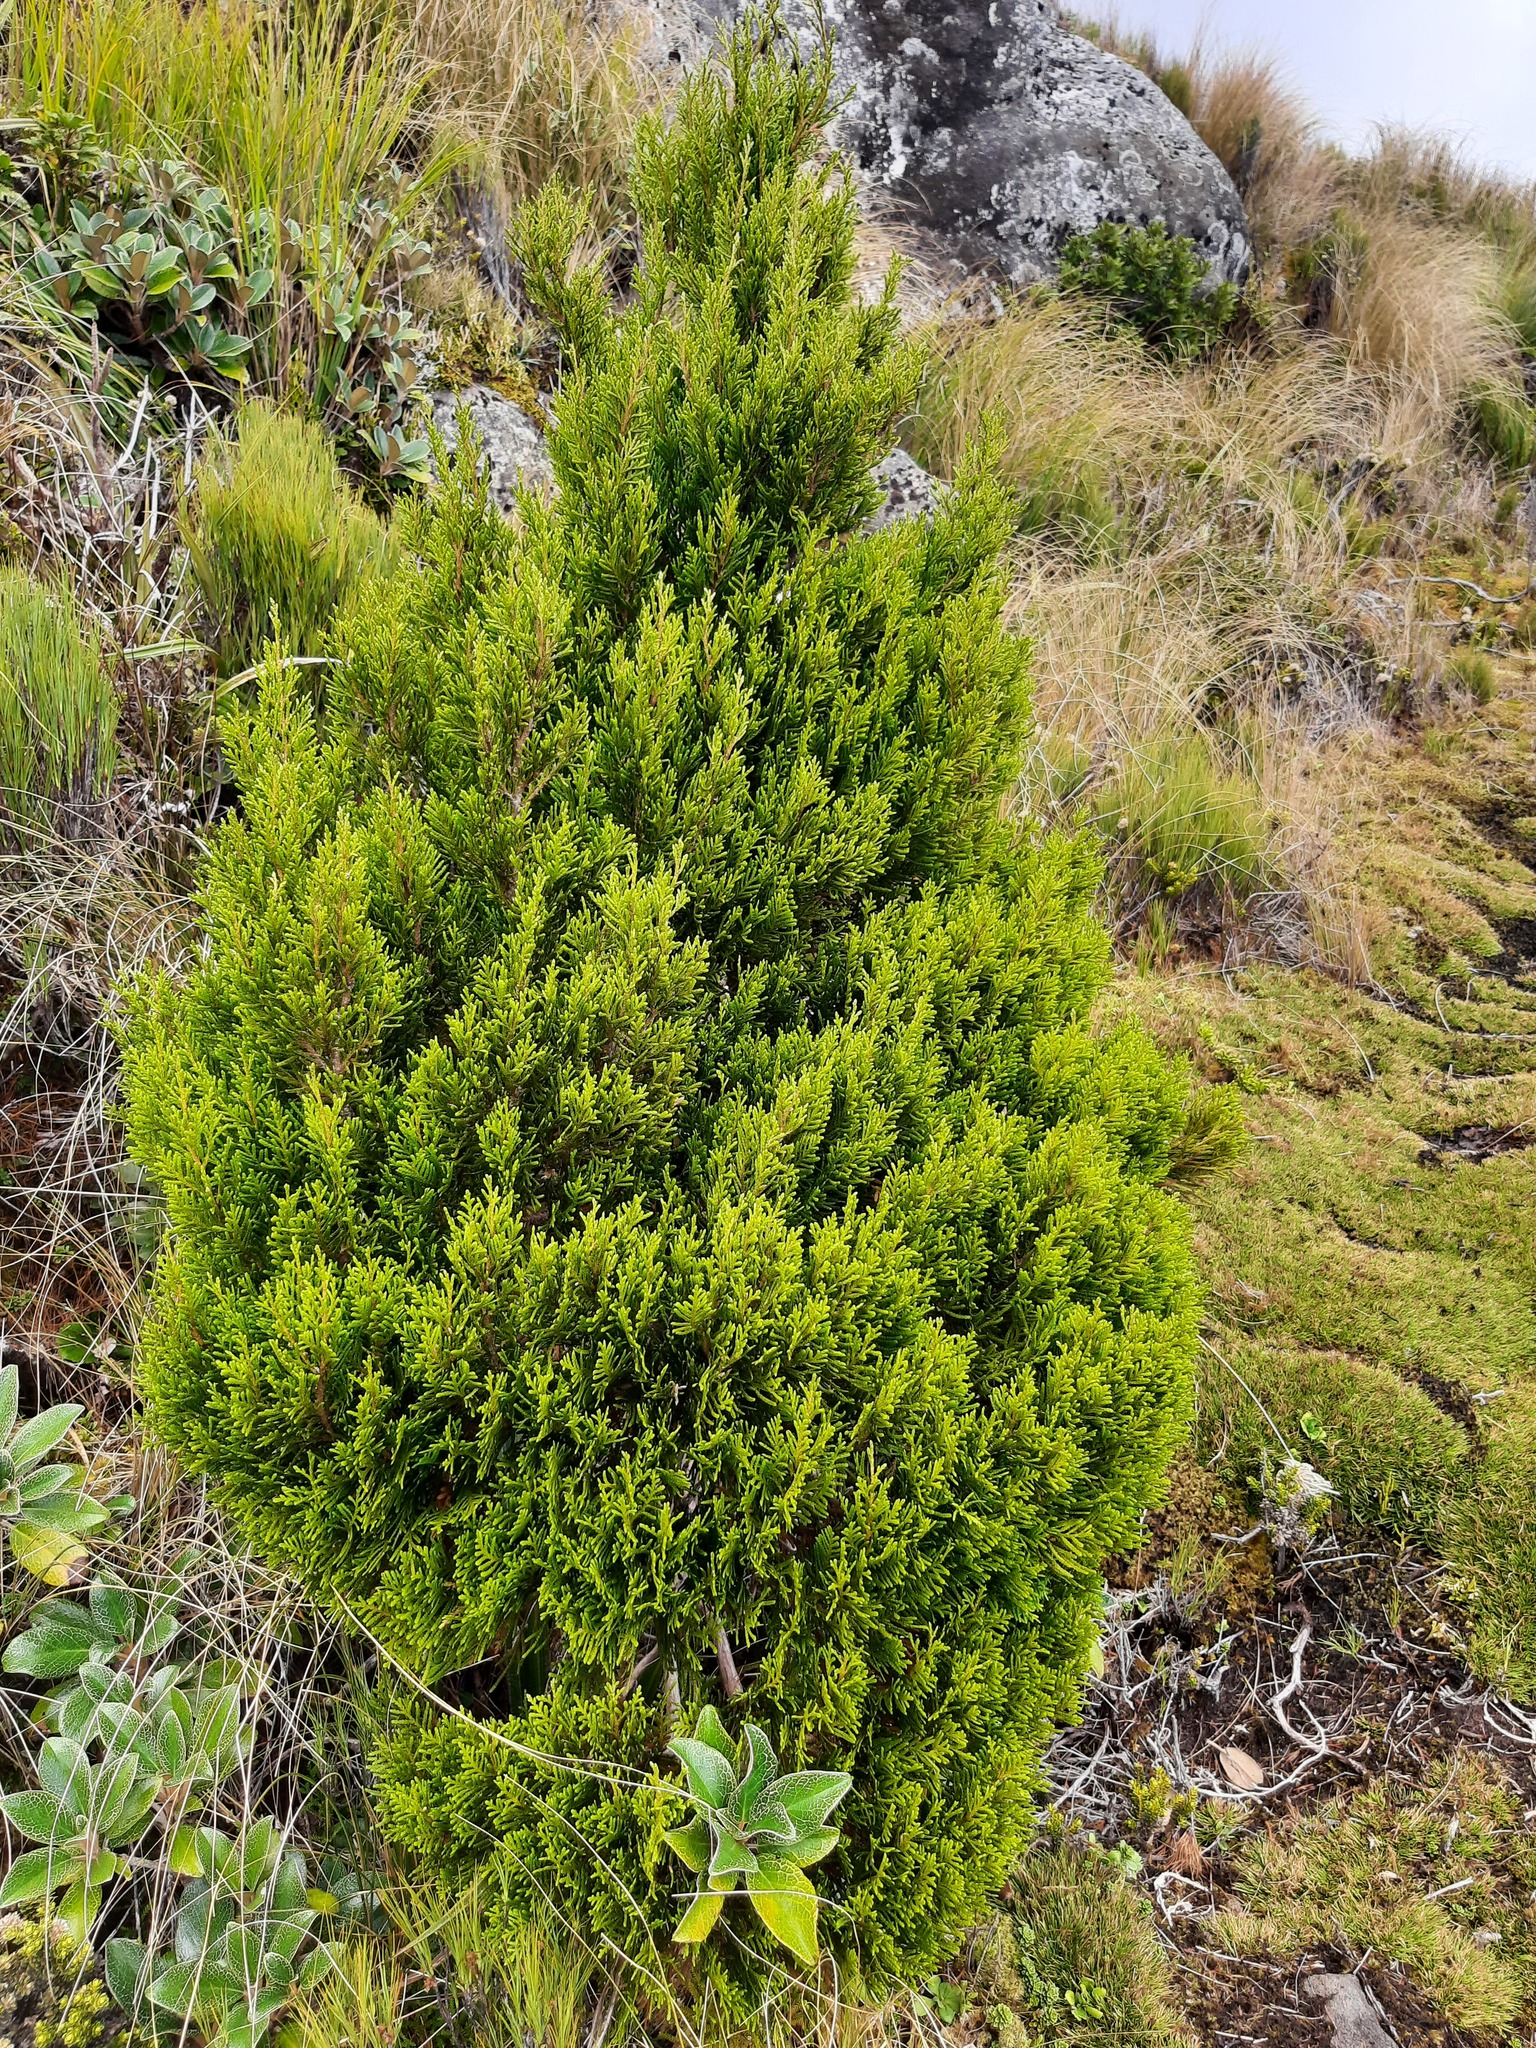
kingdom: Plantae
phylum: Tracheophyta
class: Pinopsida
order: Pinales
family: Cupressaceae
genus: Libocedrus
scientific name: Libocedrus bidwillii
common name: Cedar
